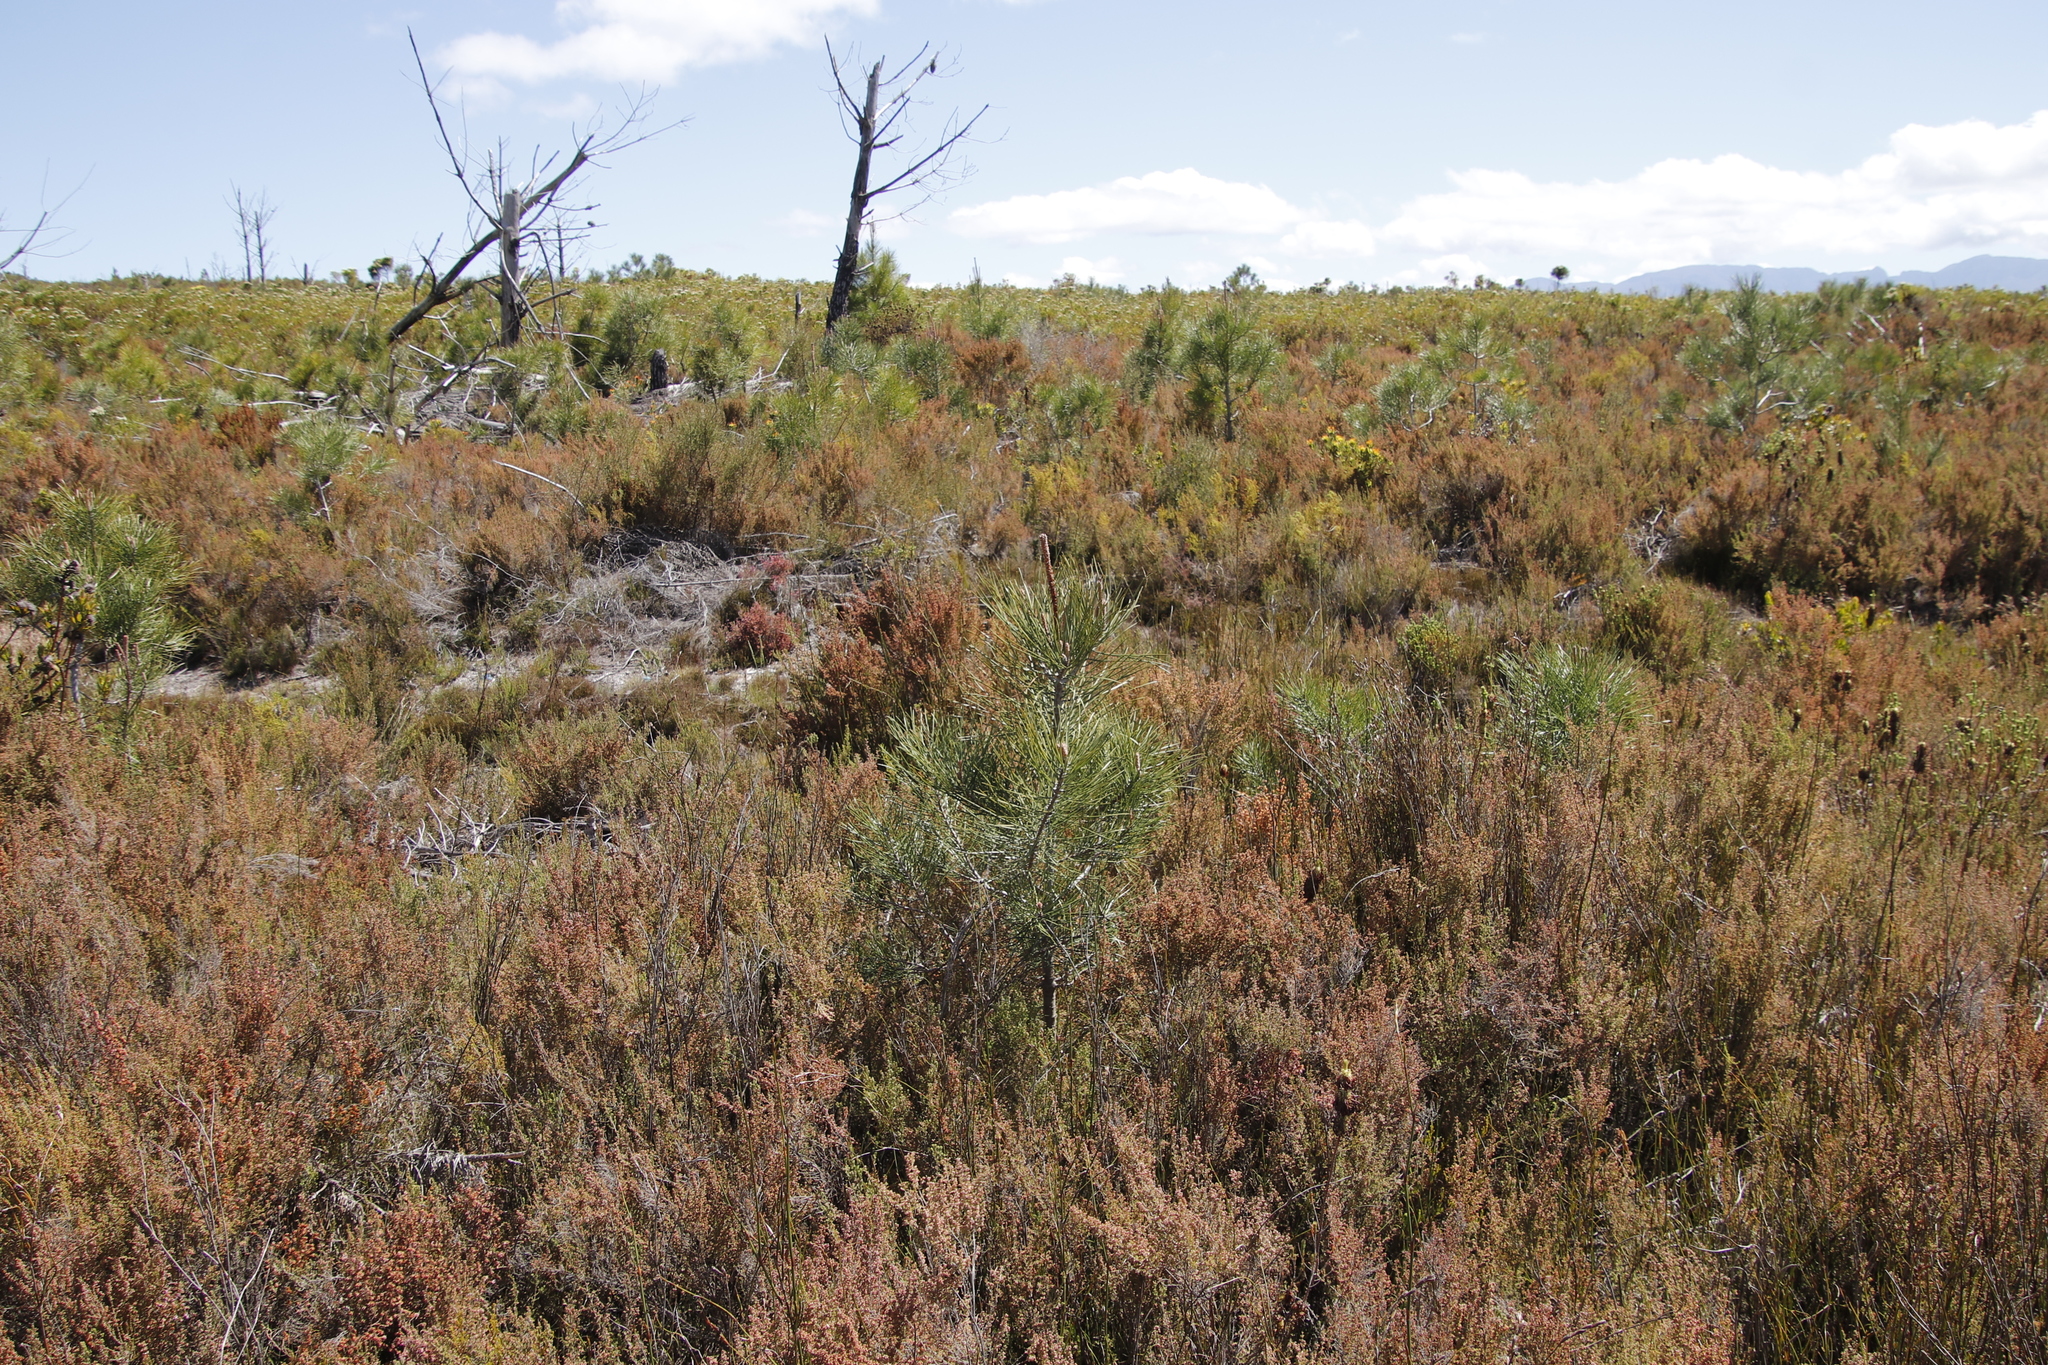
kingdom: Plantae
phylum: Tracheophyta
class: Pinopsida
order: Pinales
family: Pinaceae
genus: Pinus
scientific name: Pinus pinaster
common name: Maritime pine
